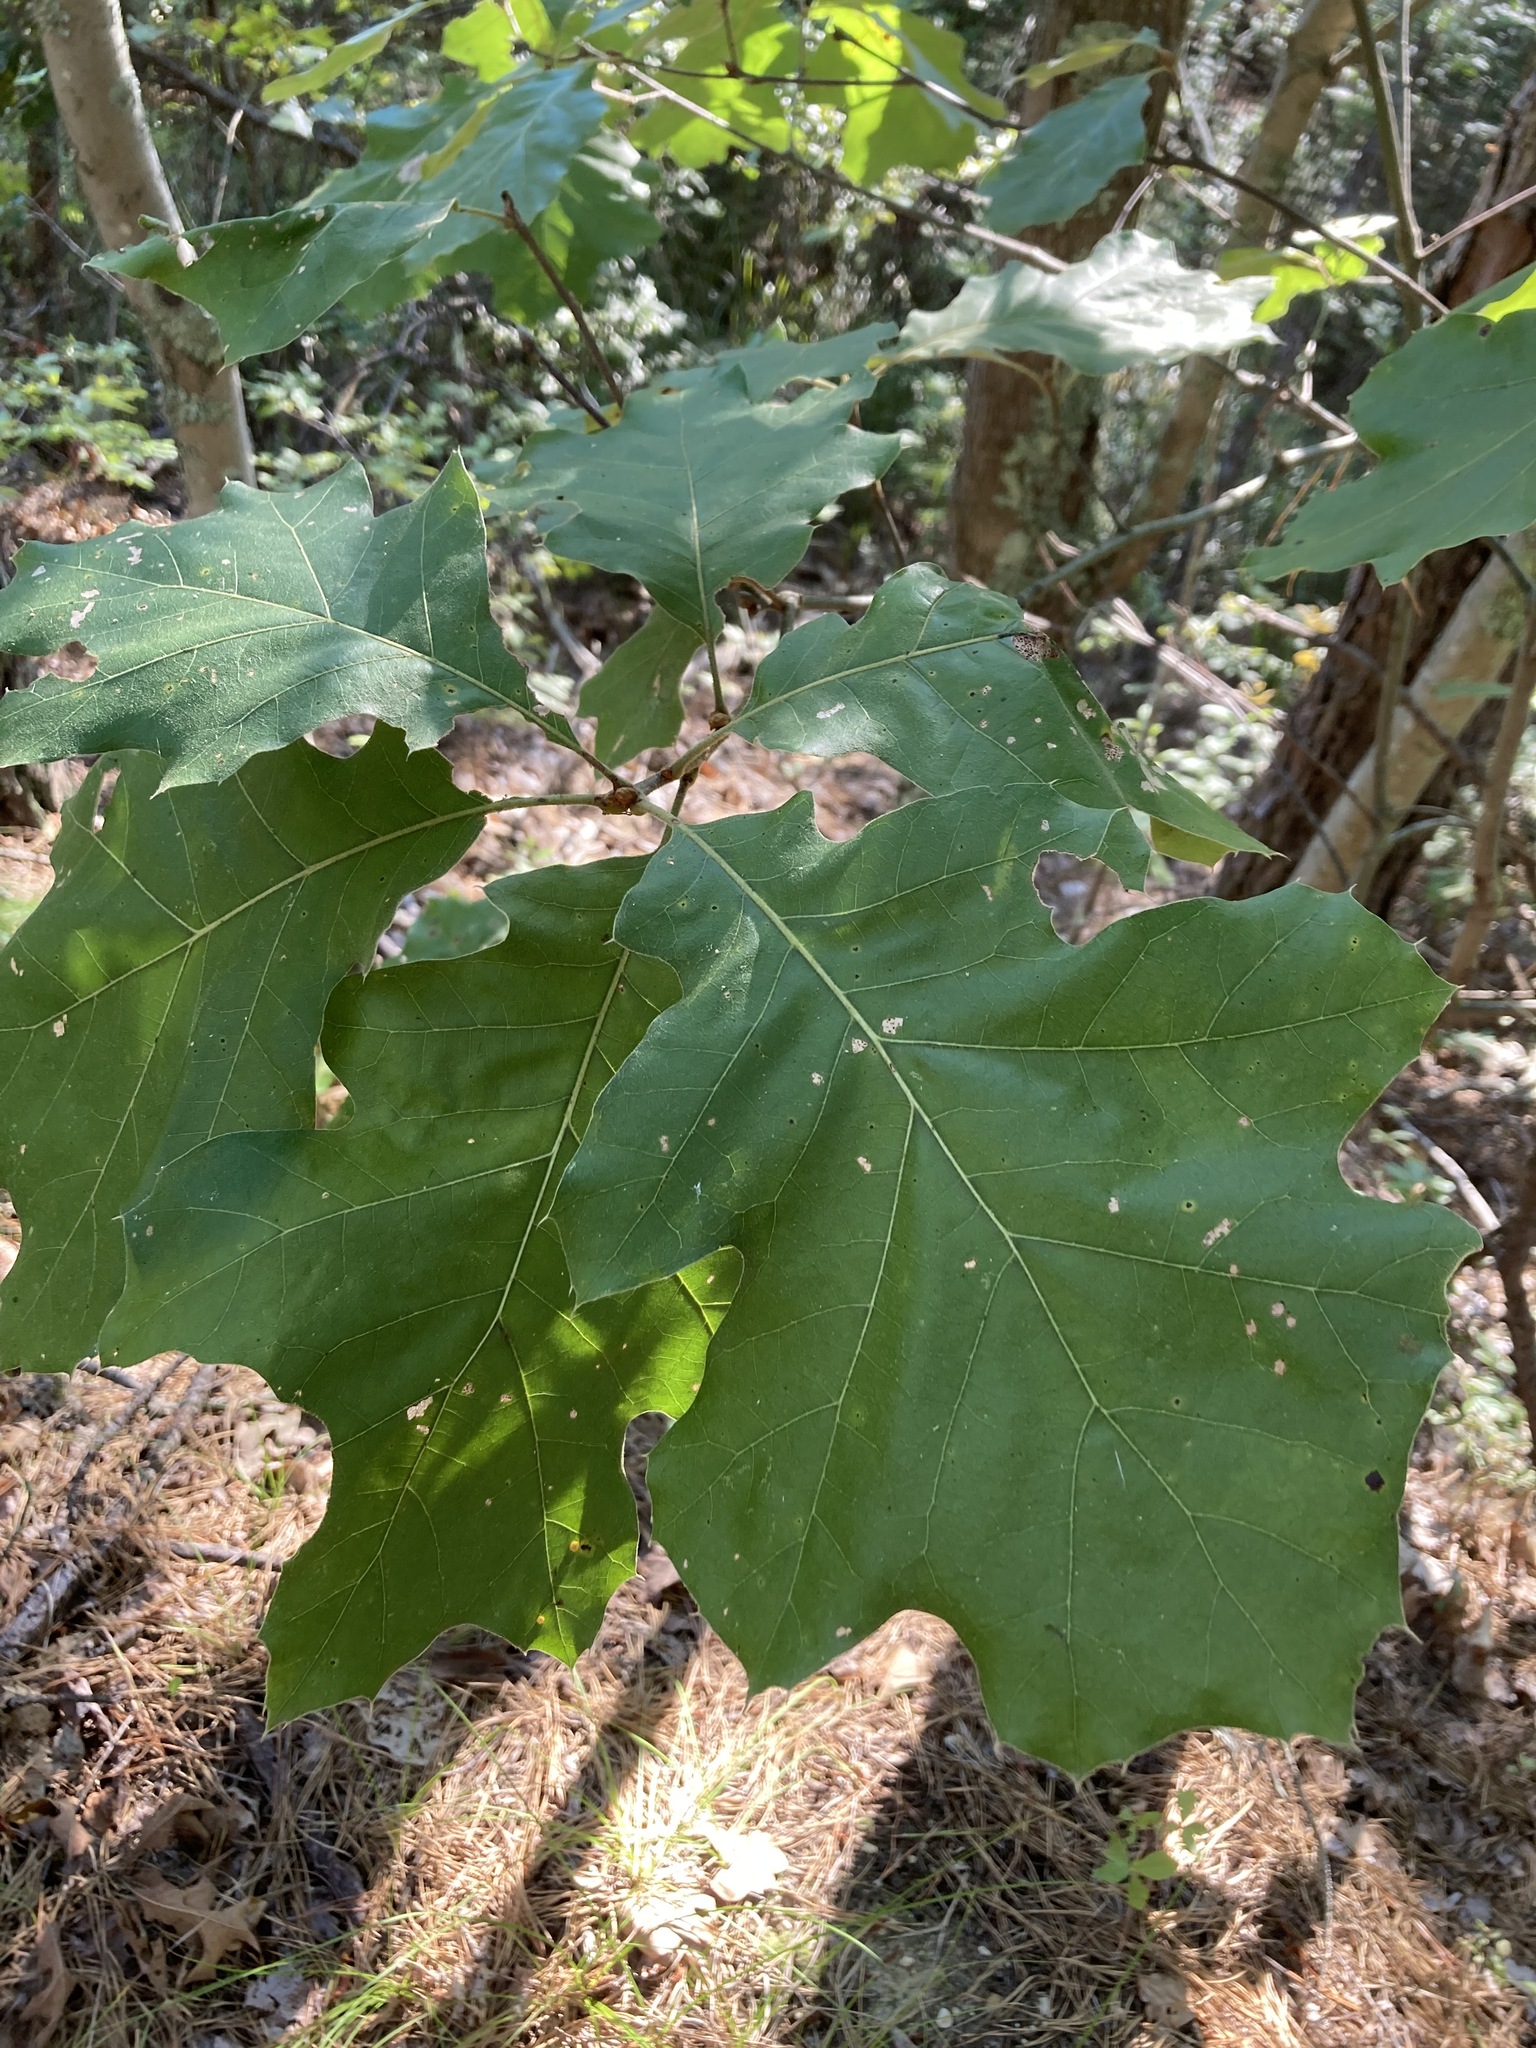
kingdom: Plantae
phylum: Tracheophyta
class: Magnoliopsida
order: Fagales
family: Fagaceae
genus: Quercus
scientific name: Quercus velutina
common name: Black oak
